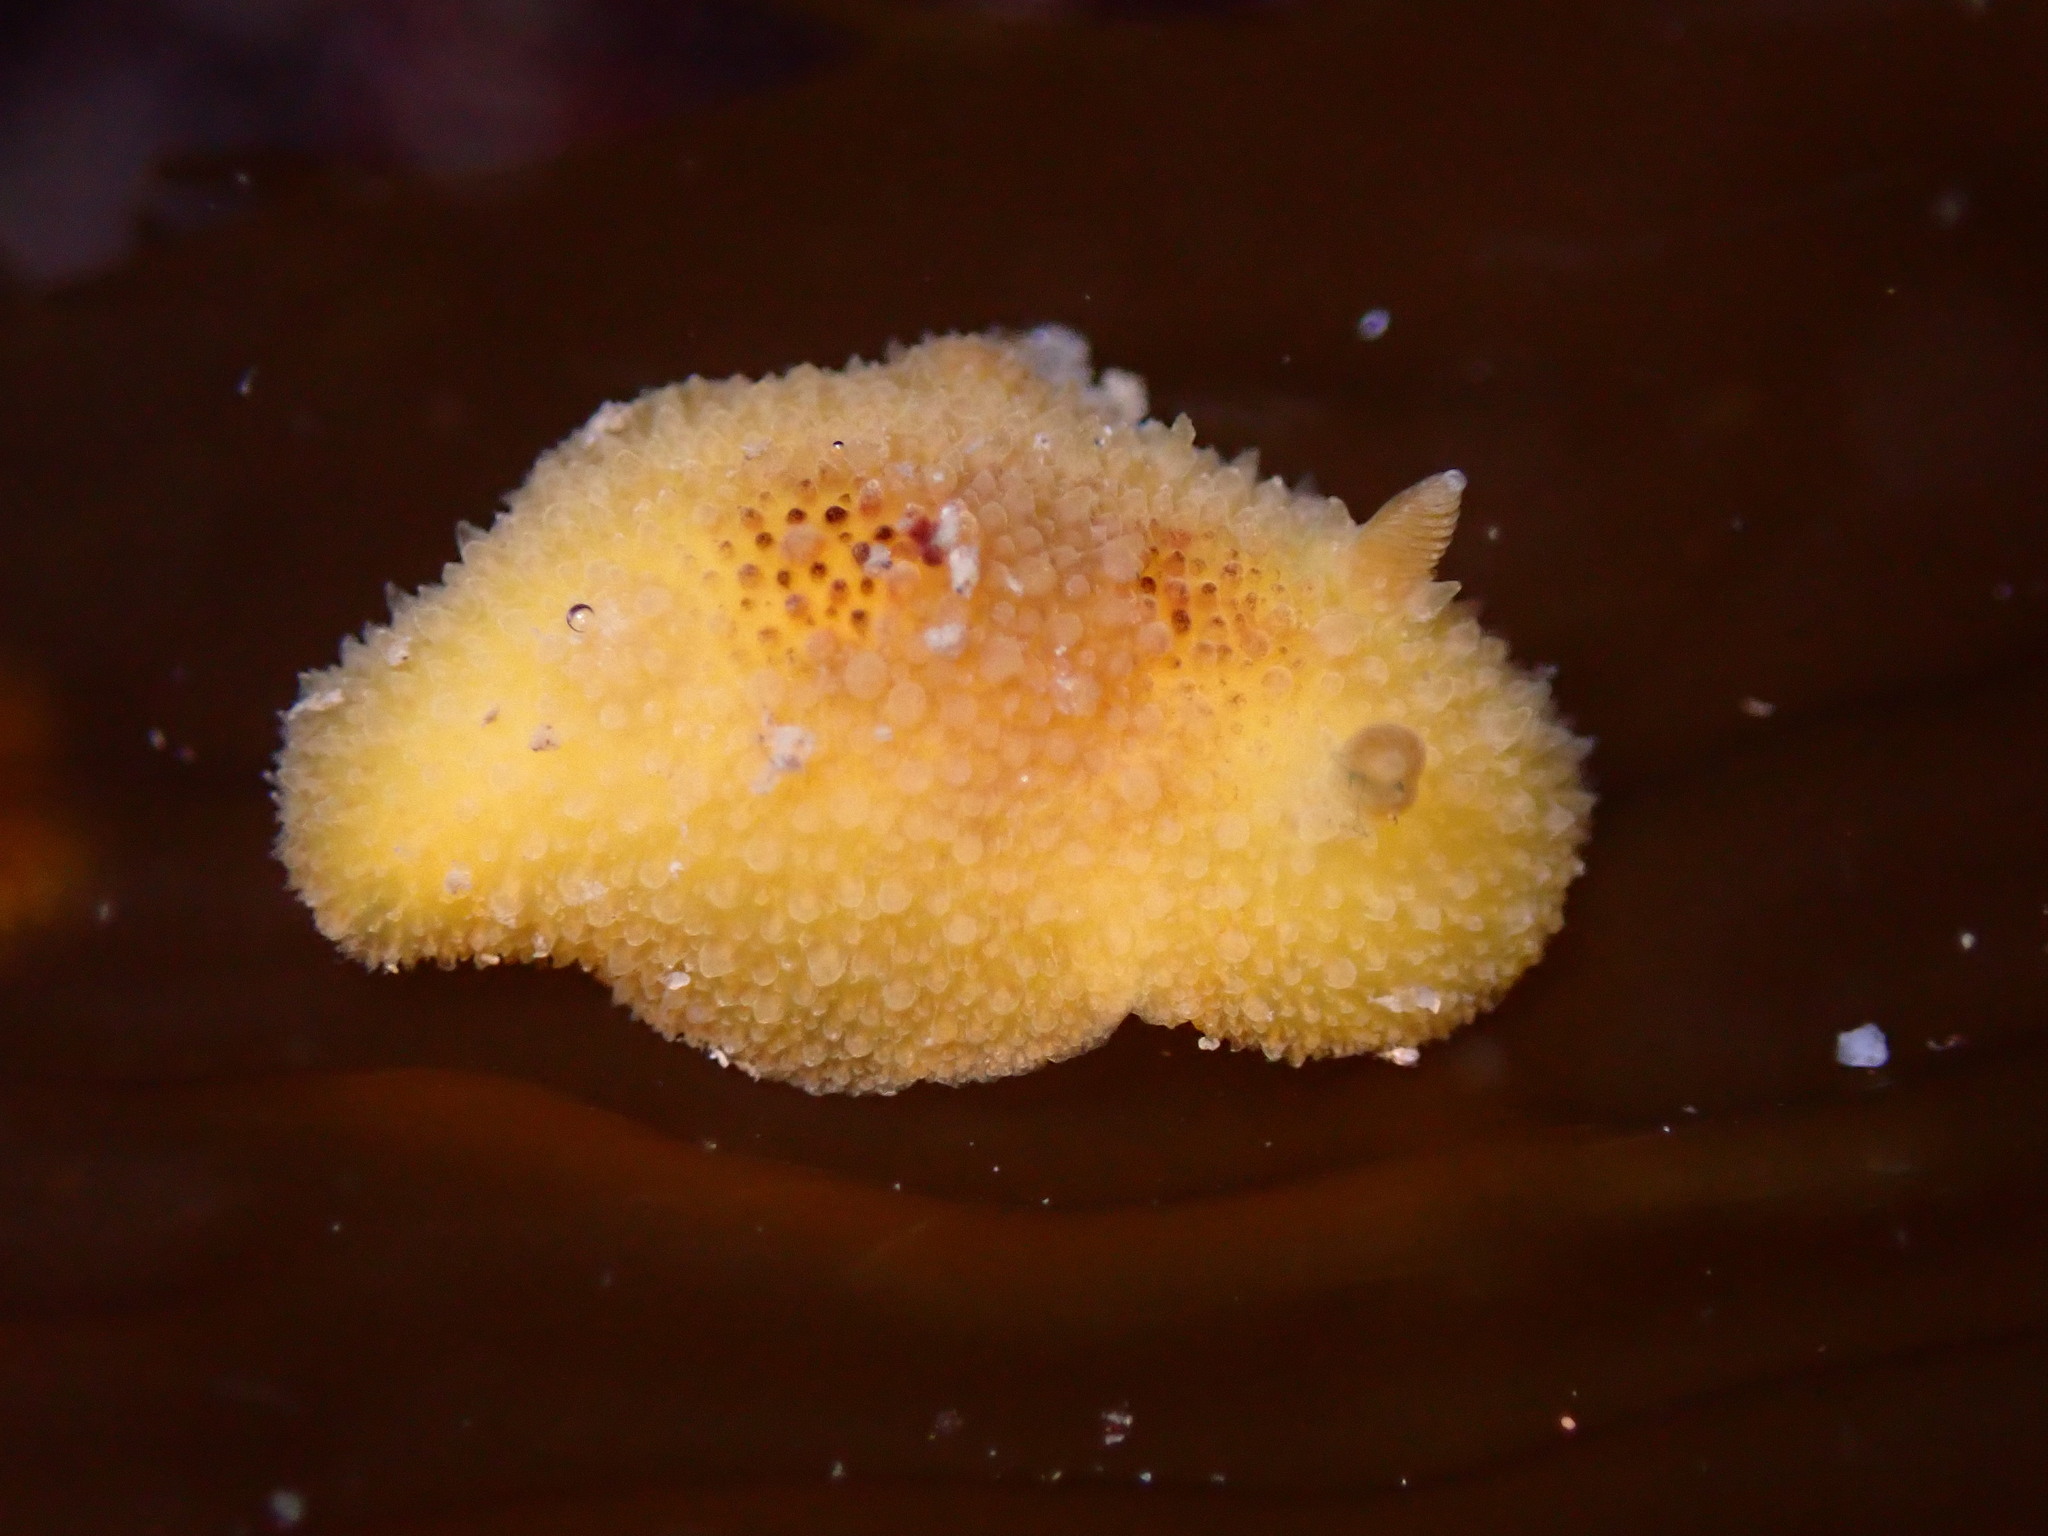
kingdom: Animalia
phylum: Mollusca
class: Gastropoda
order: Nudibranchia
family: Discodorididae
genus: Thordisa
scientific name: Thordisa bimaculata
